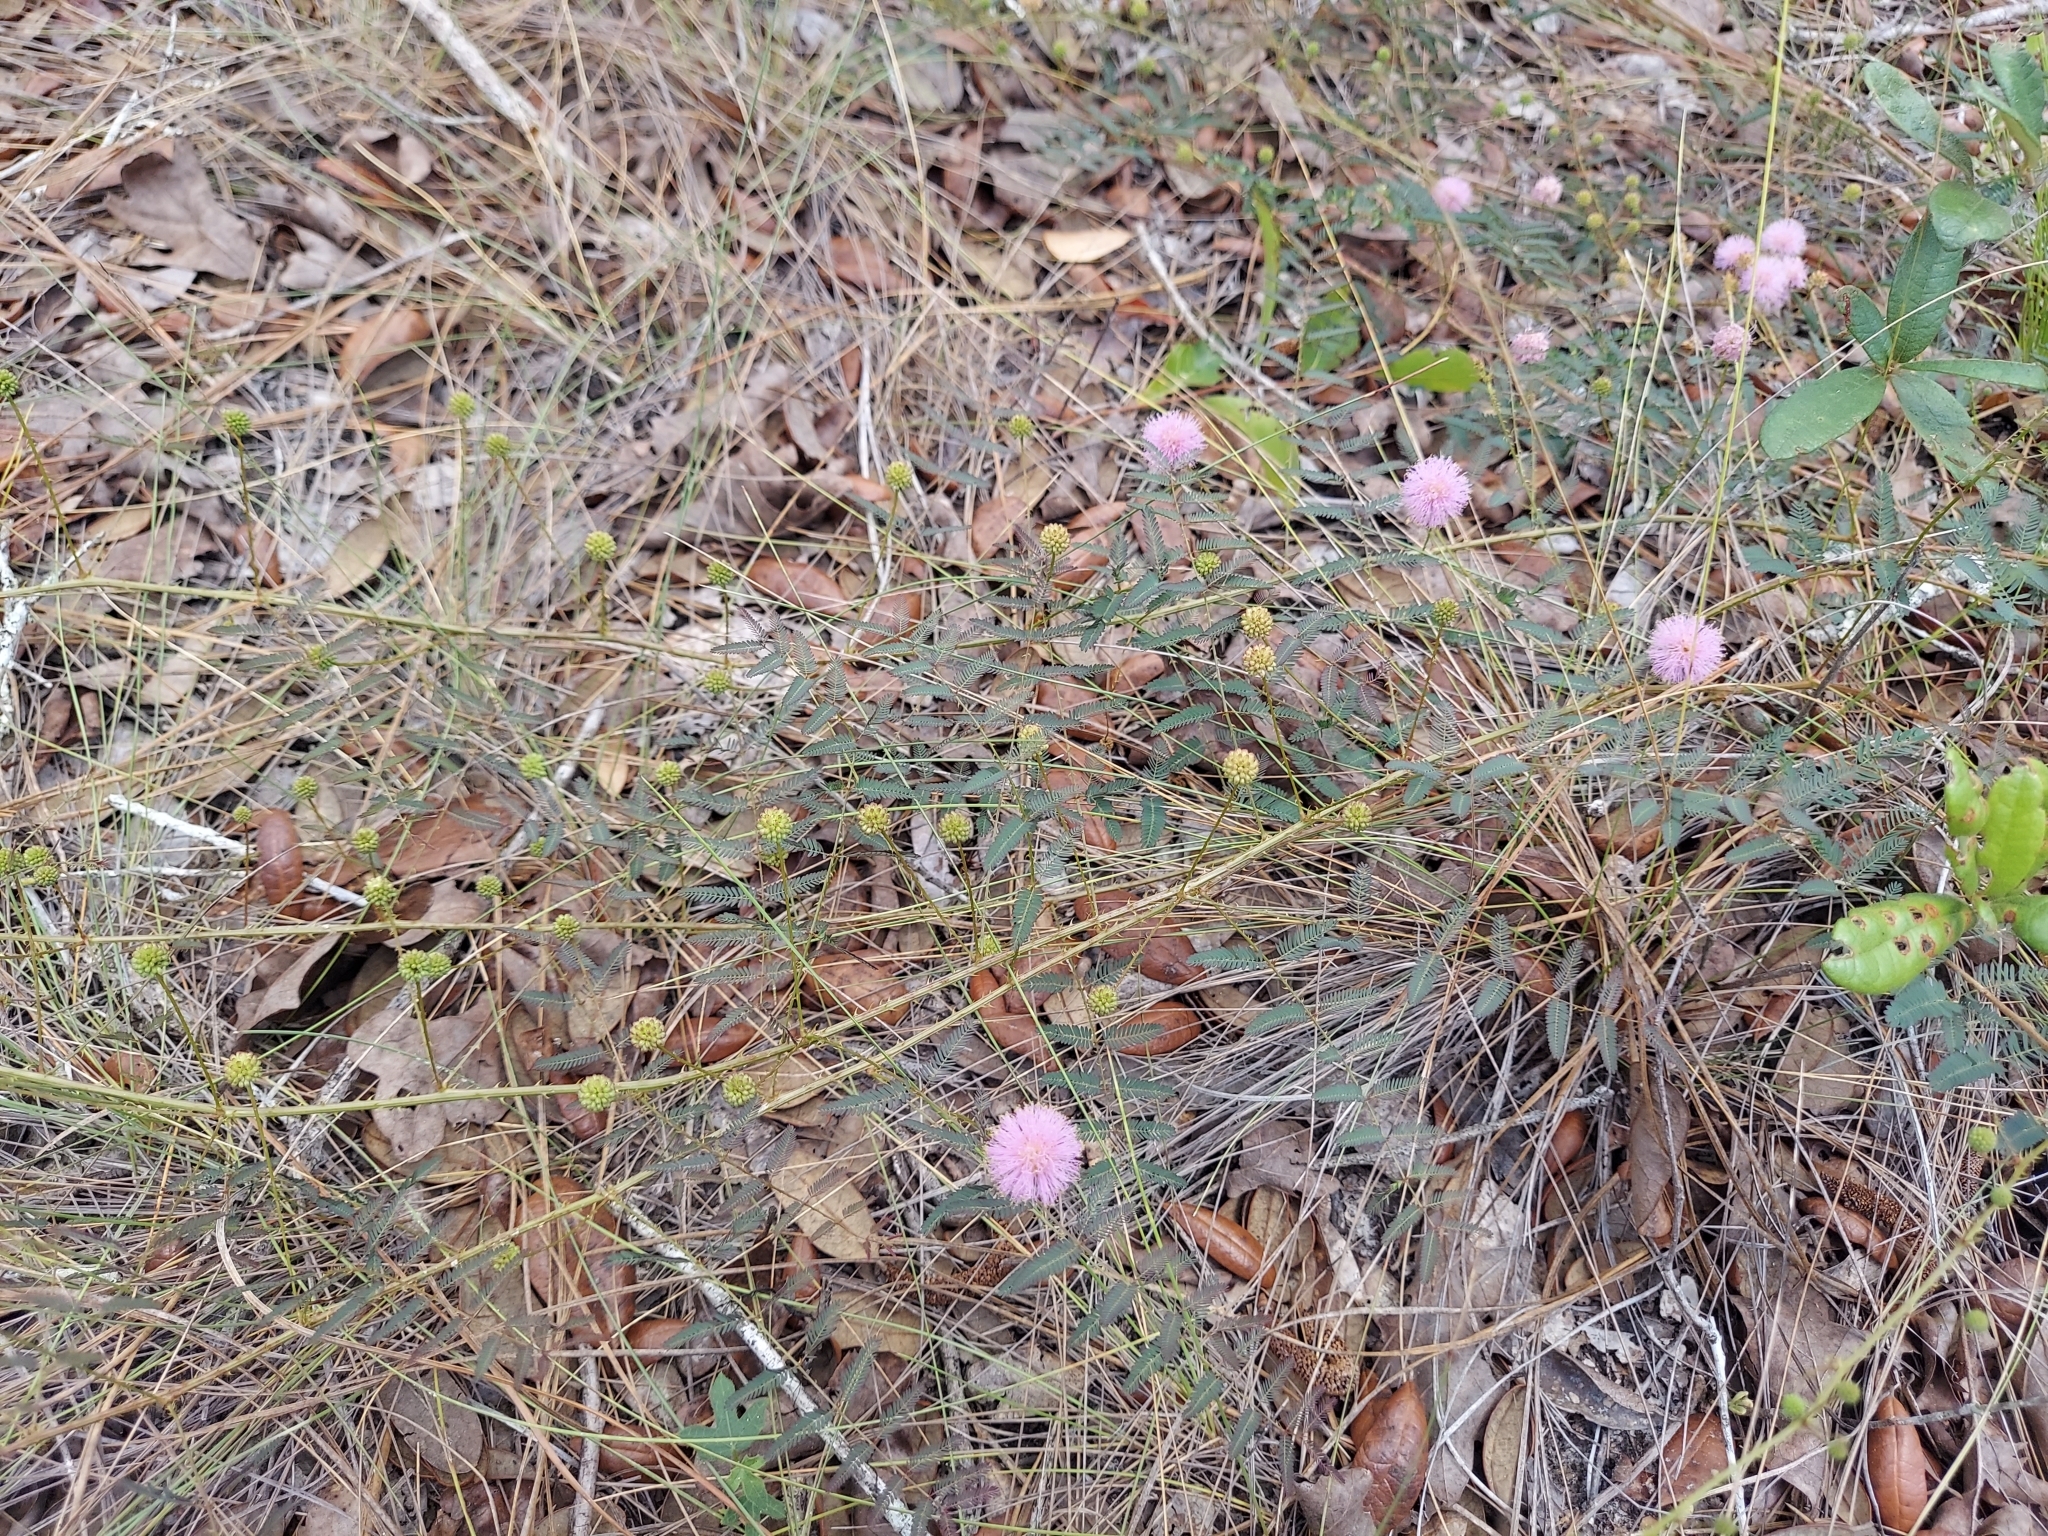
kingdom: Plantae
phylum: Tracheophyta
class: Magnoliopsida
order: Fabales
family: Fabaceae
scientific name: Fabaceae
